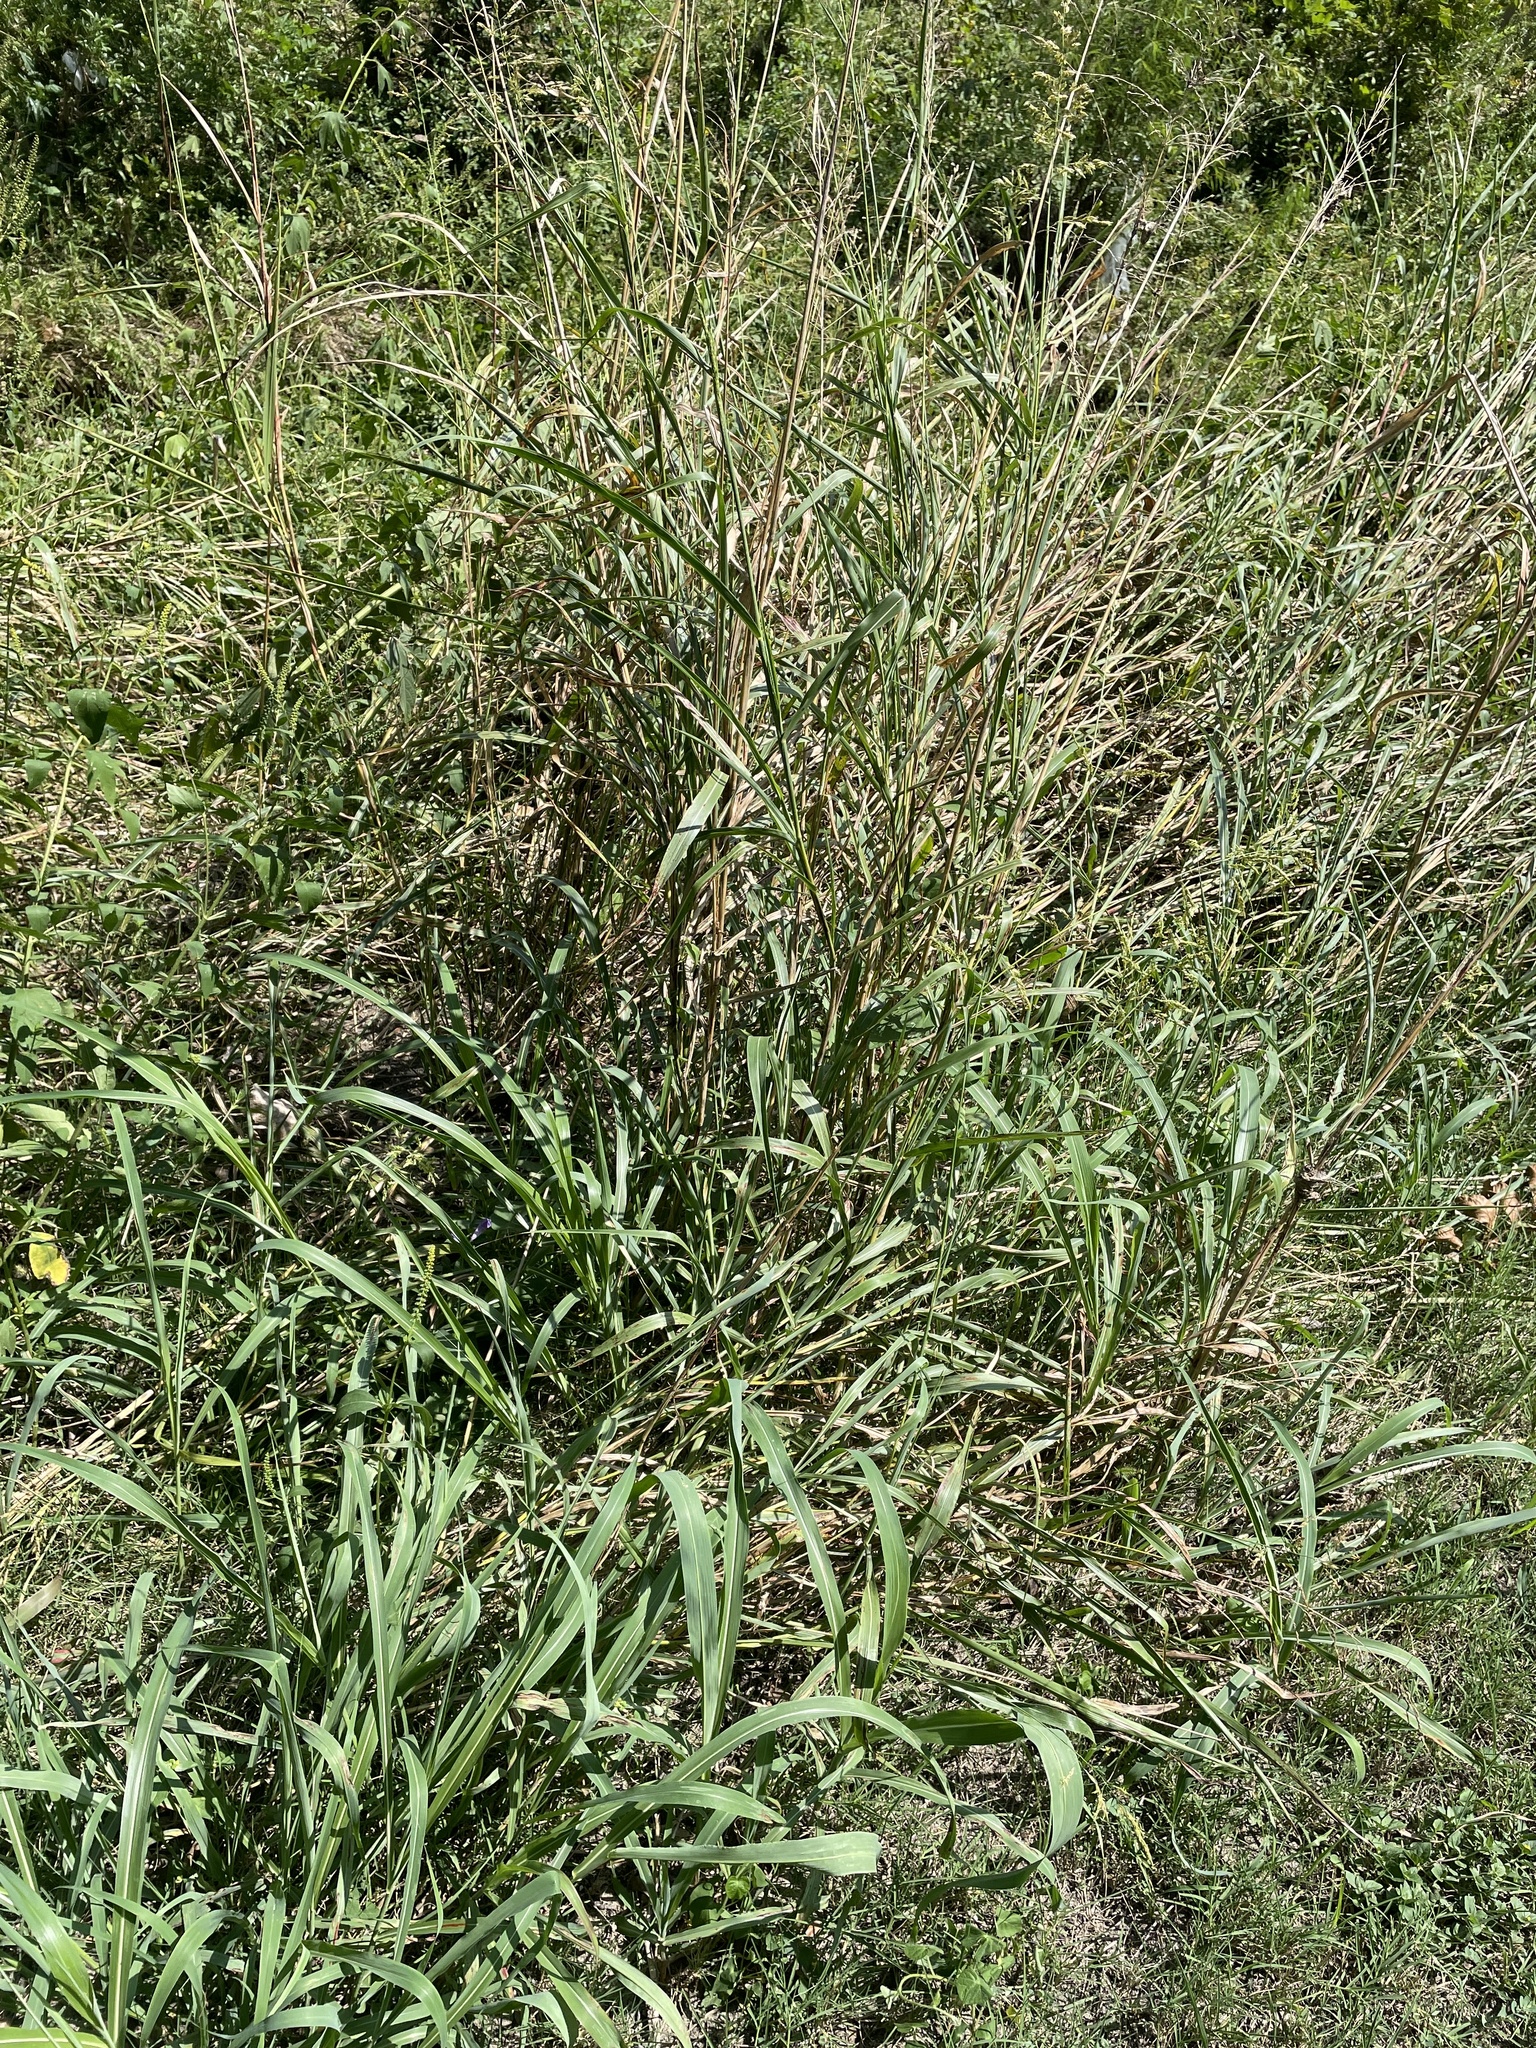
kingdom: Plantae
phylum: Tracheophyta
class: Liliopsida
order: Poales
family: Poaceae
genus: Sorghum
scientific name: Sorghum halepense
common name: Johnson-grass
